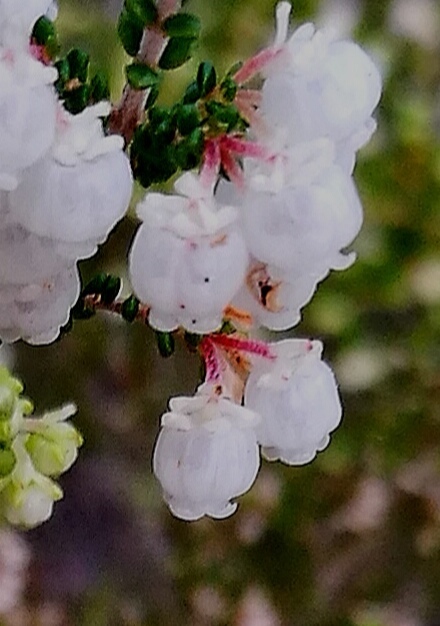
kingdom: Plantae
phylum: Tracheophyta
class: Magnoliopsida
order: Ericales
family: Ericaceae
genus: Erica
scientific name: Erica formosa
